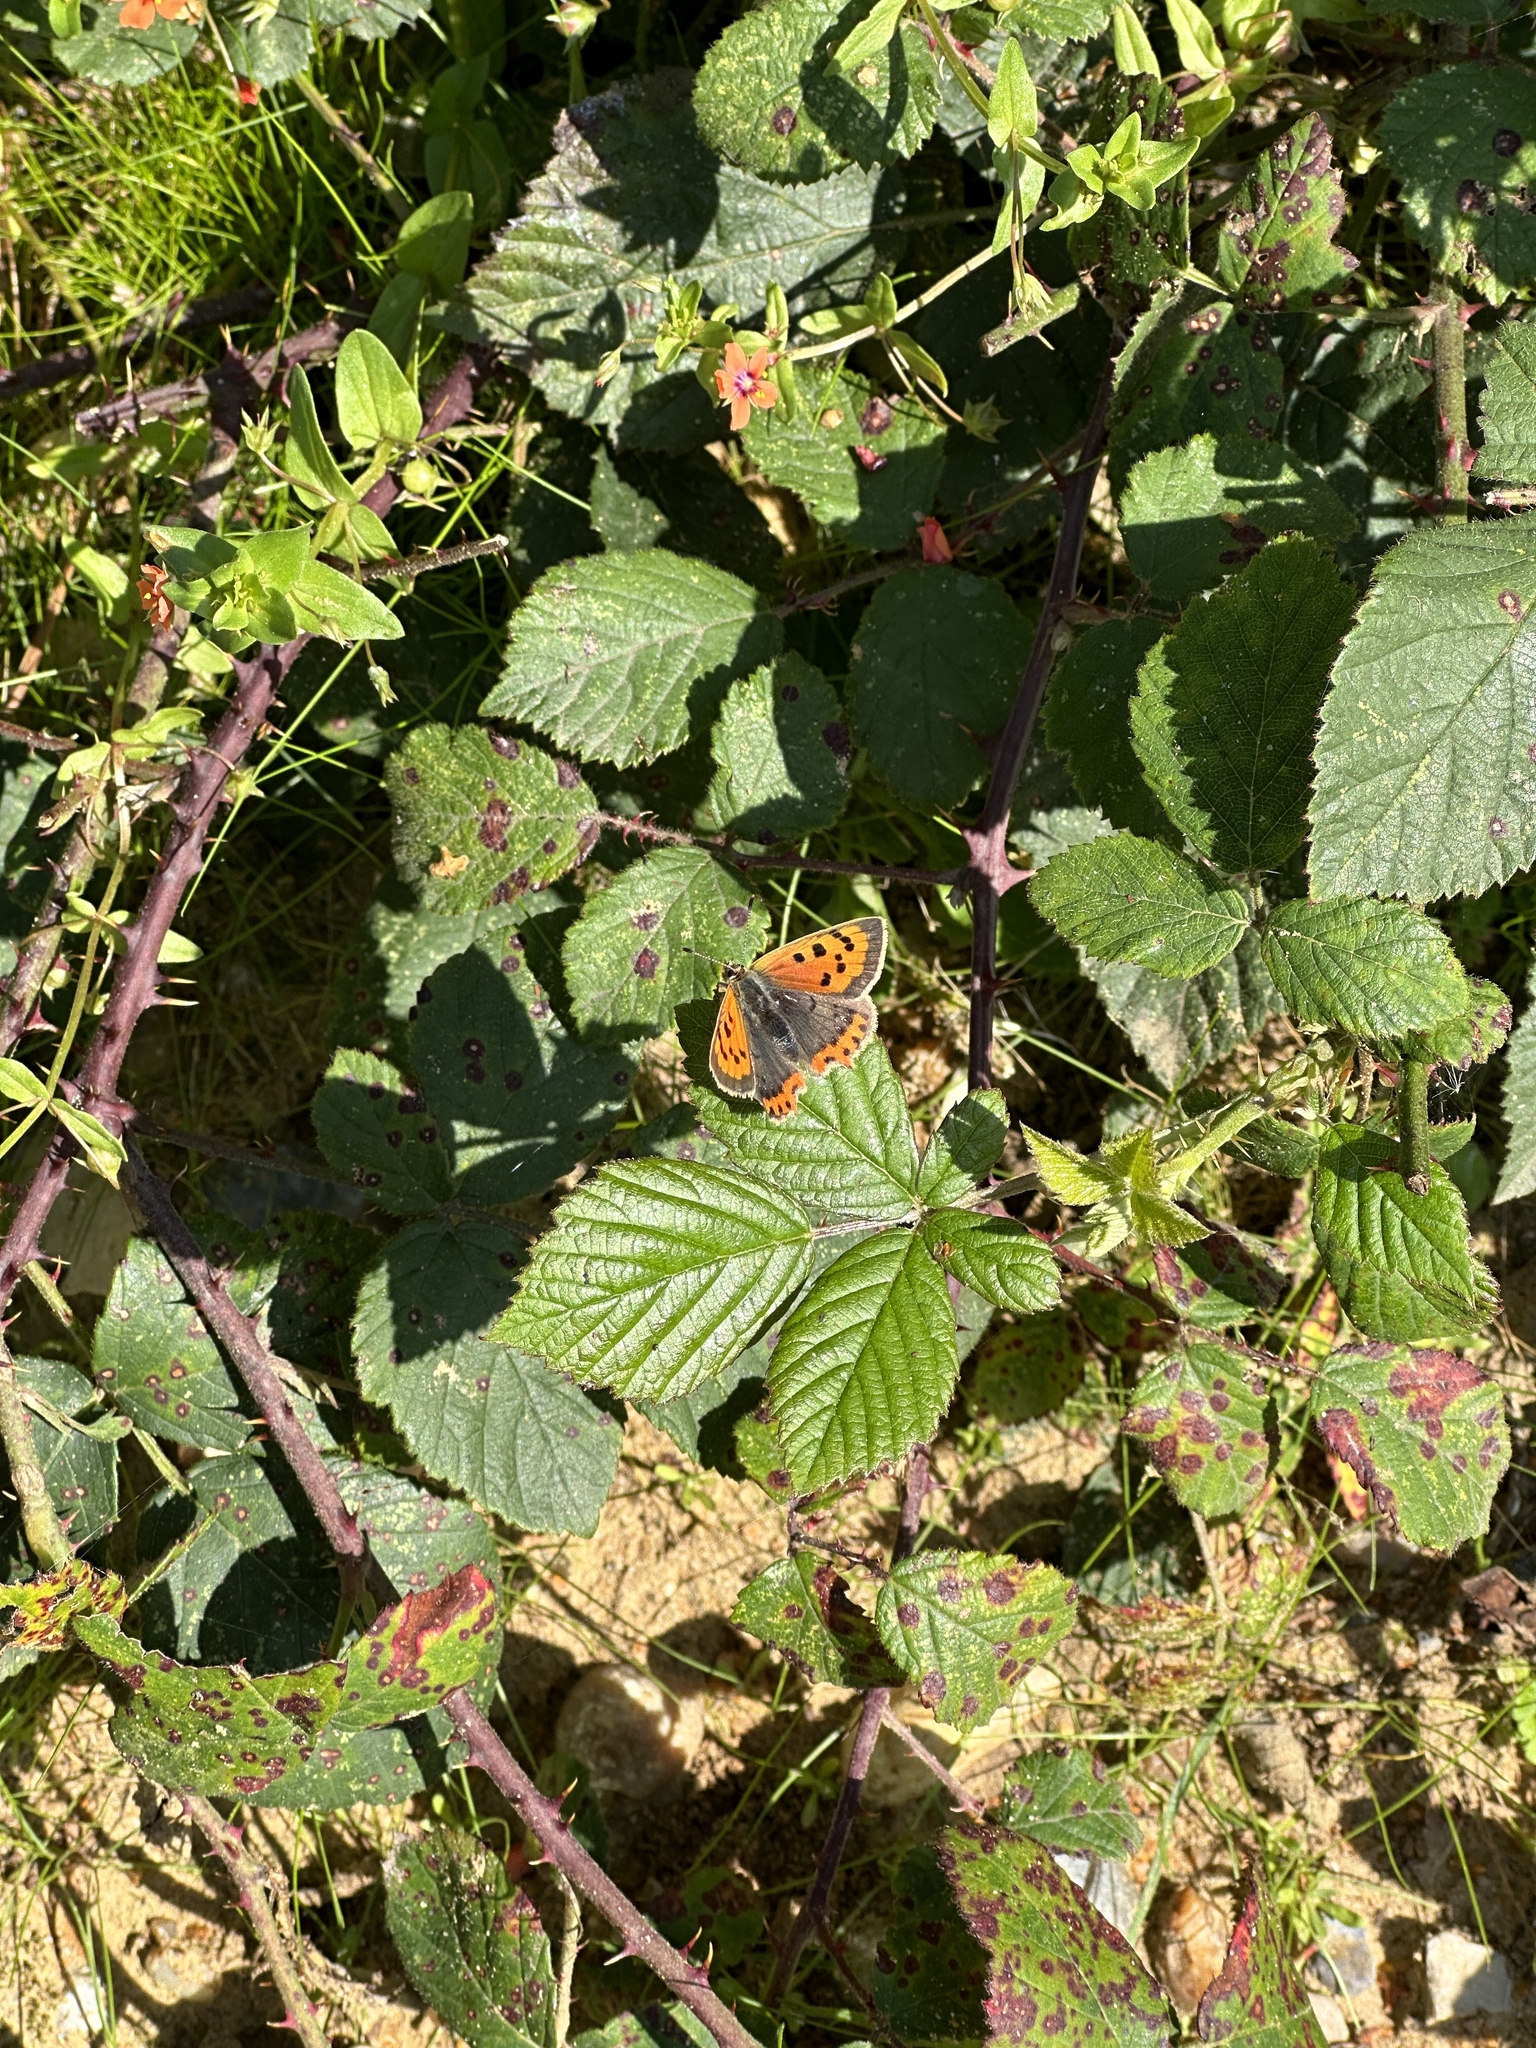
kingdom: Animalia
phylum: Arthropoda
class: Insecta
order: Lepidoptera
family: Lycaenidae
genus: Lycaena
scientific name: Lycaena phlaeas
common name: Small copper
